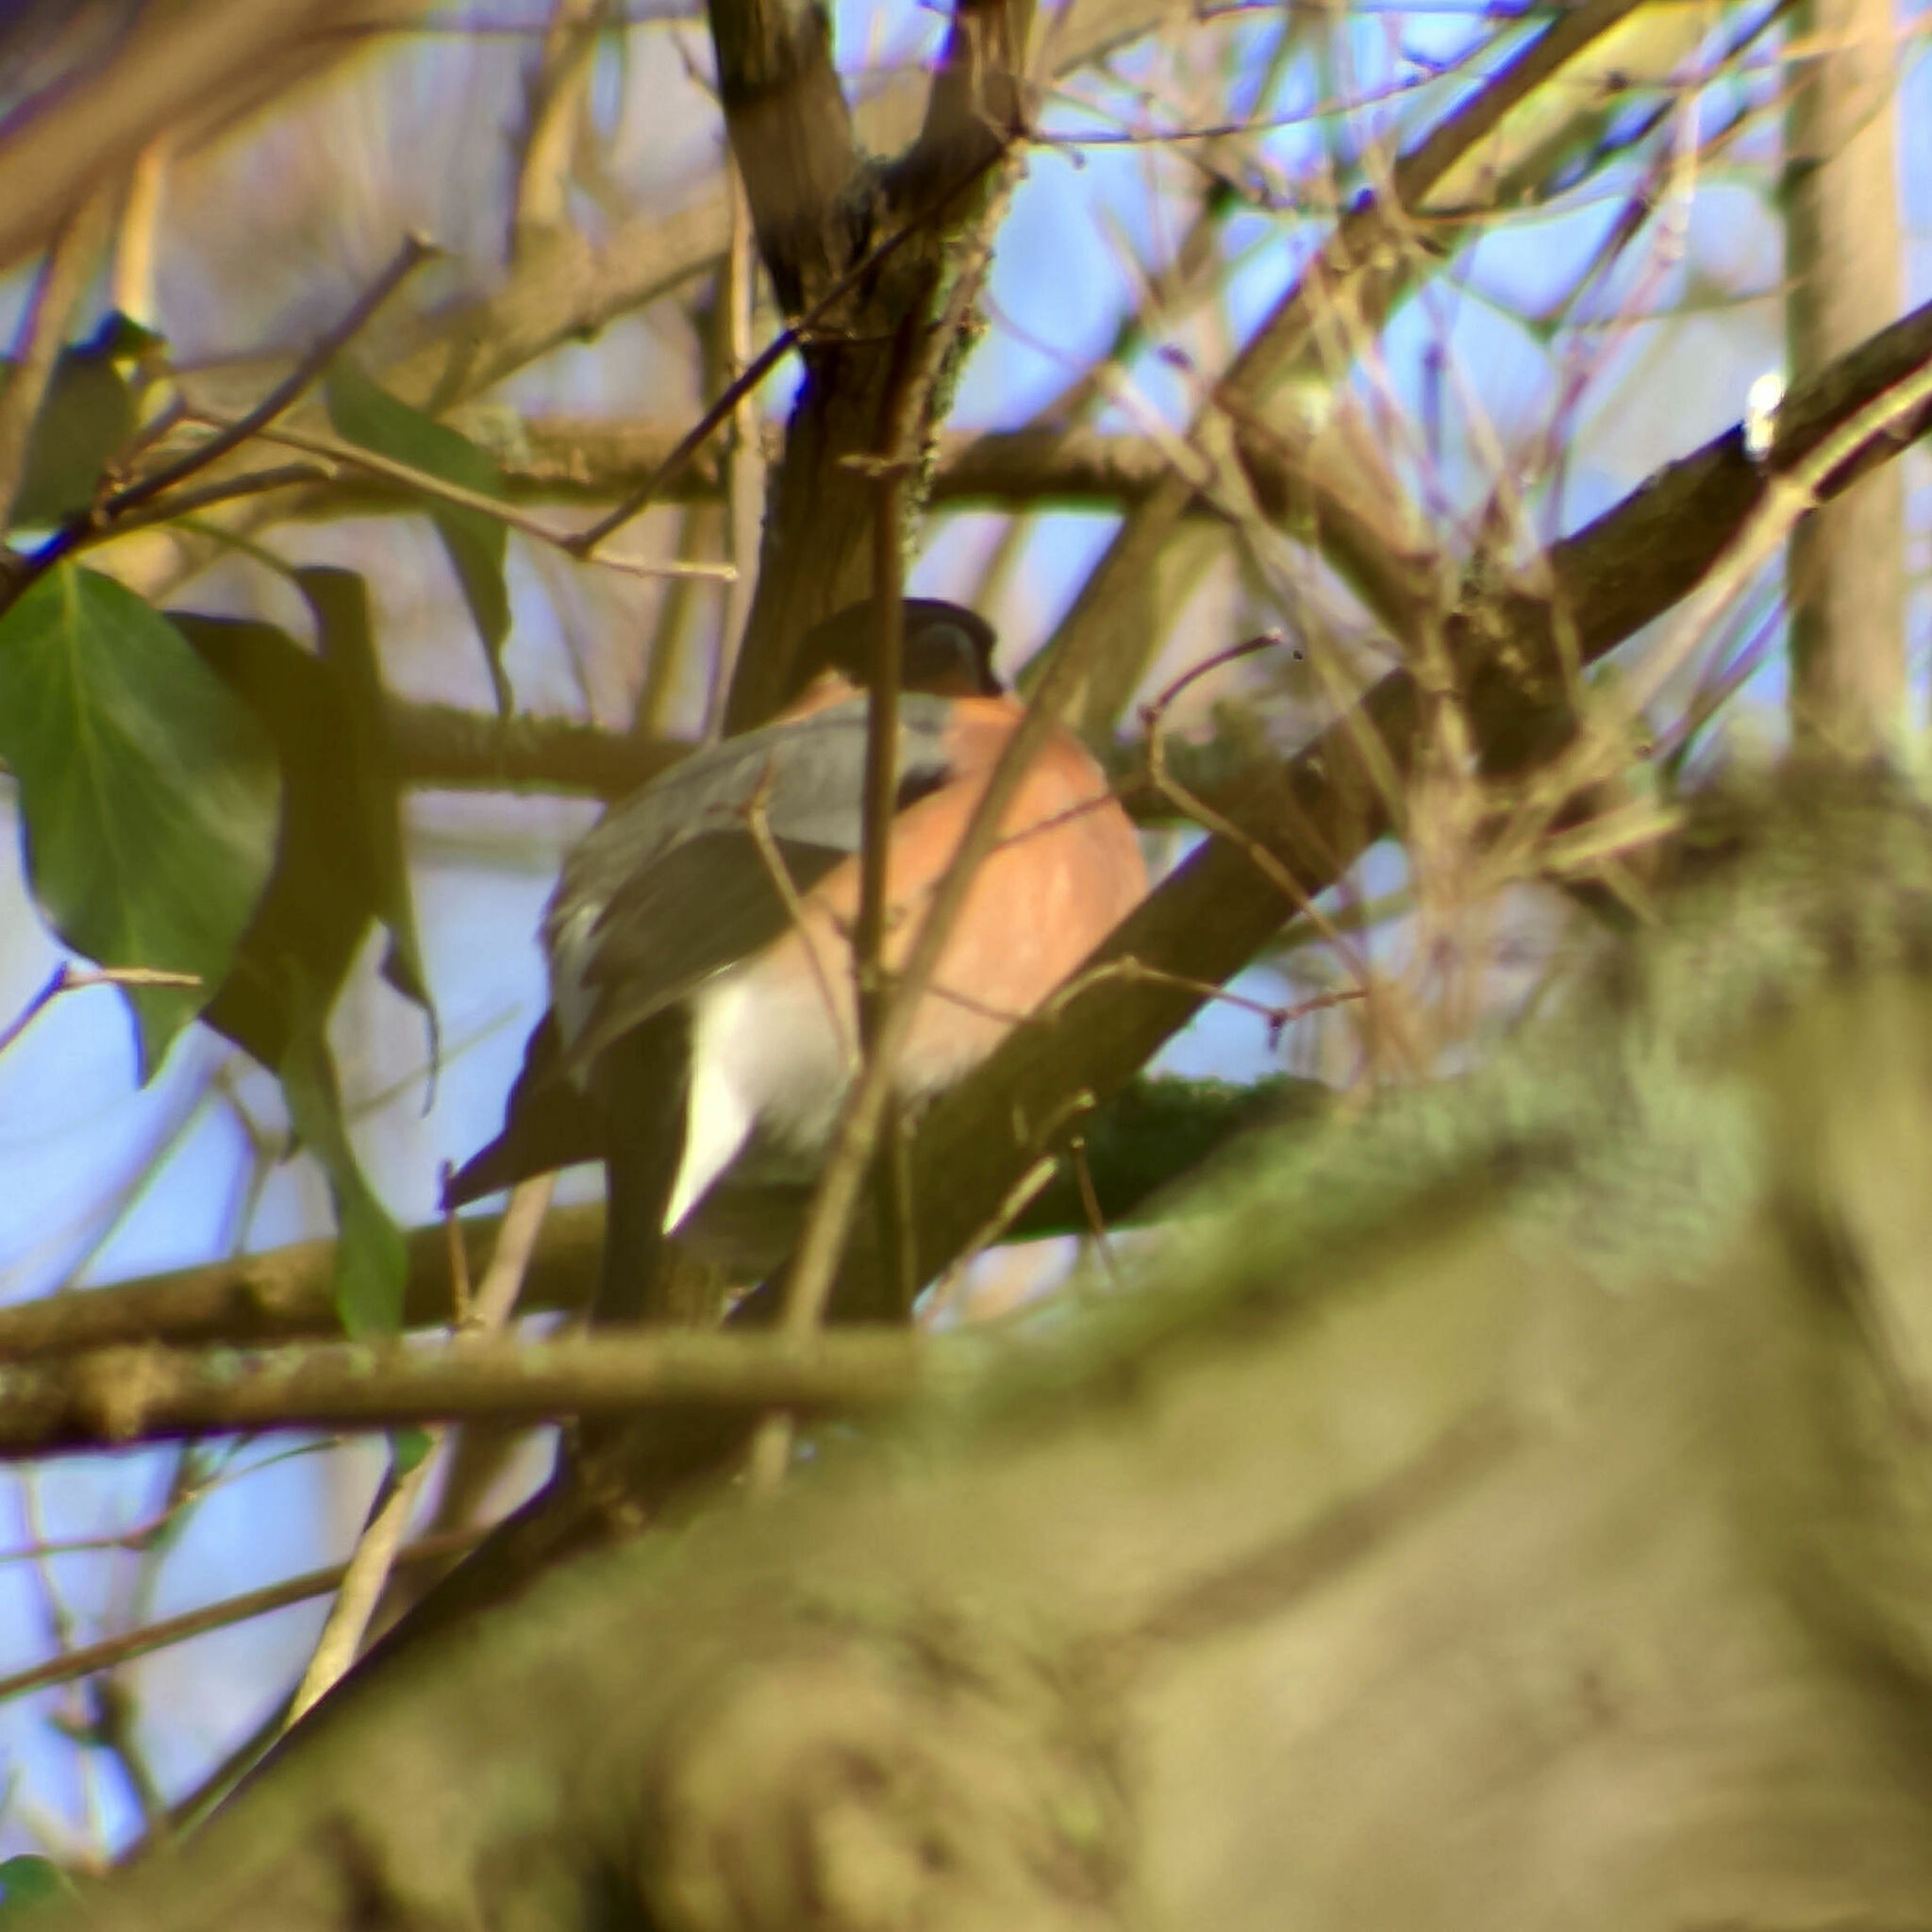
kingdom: Animalia
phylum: Chordata
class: Aves
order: Passeriformes
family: Fringillidae
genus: Pyrrhula
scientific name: Pyrrhula pyrrhula
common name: Eurasian bullfinch
